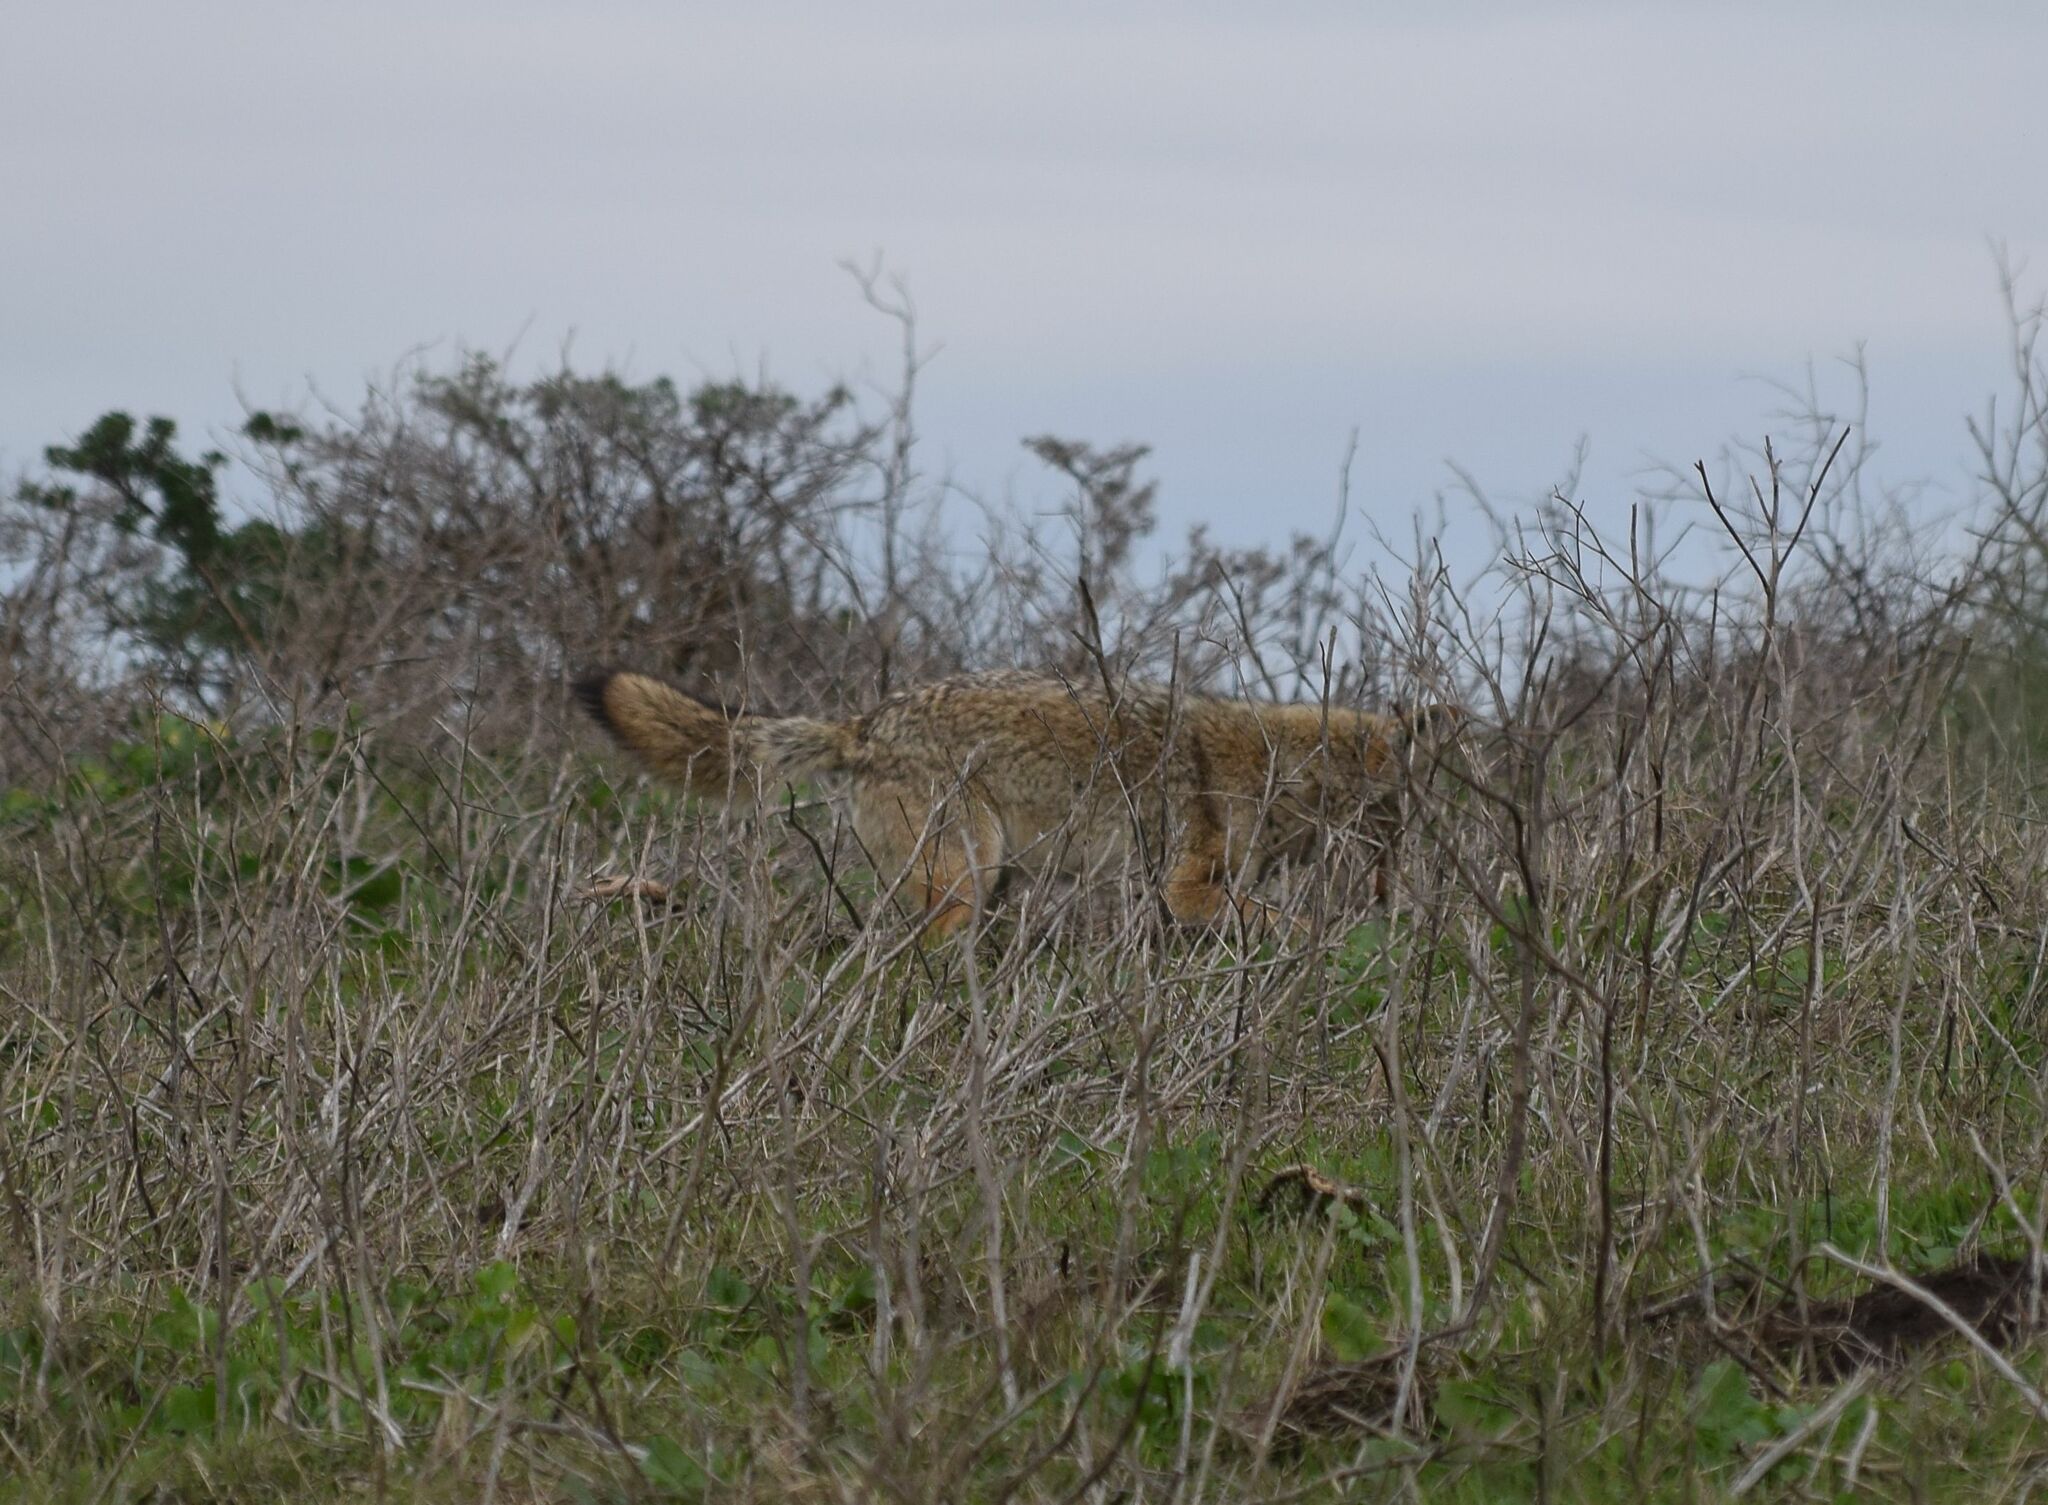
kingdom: Animalia
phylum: Chordata
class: Mammalia
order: Carnivora
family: Canidae
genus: Canis
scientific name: Canis latrans
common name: Coyote
